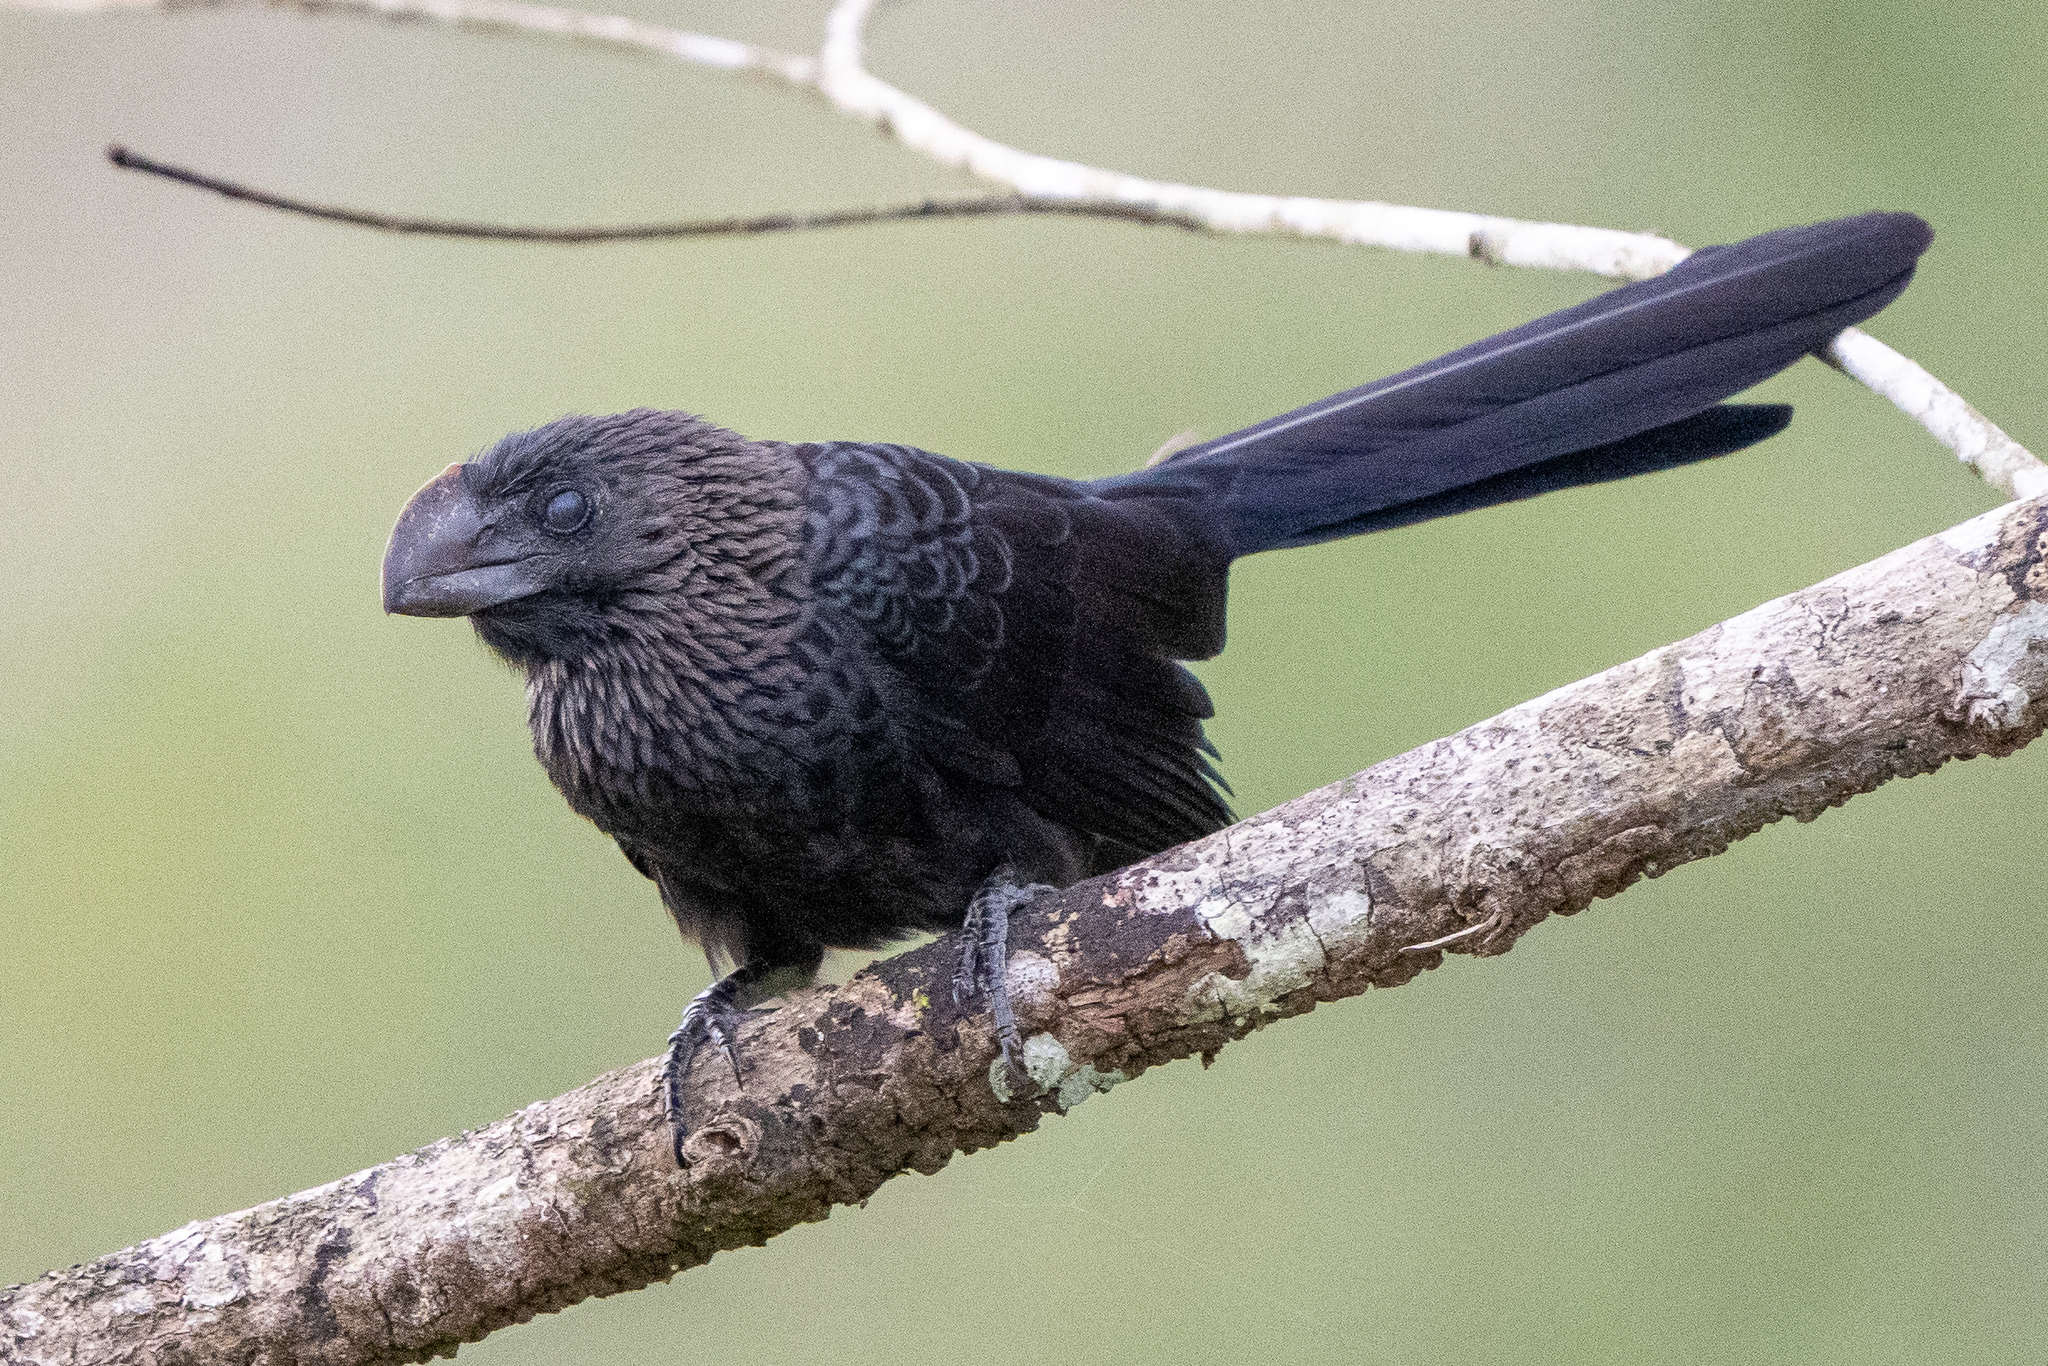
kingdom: Animalia
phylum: Chordata
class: Aves
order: Cuculiformes
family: Cuculidae
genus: Crotophaga
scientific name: Crotophaga ani
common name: Smooth-billed ani
